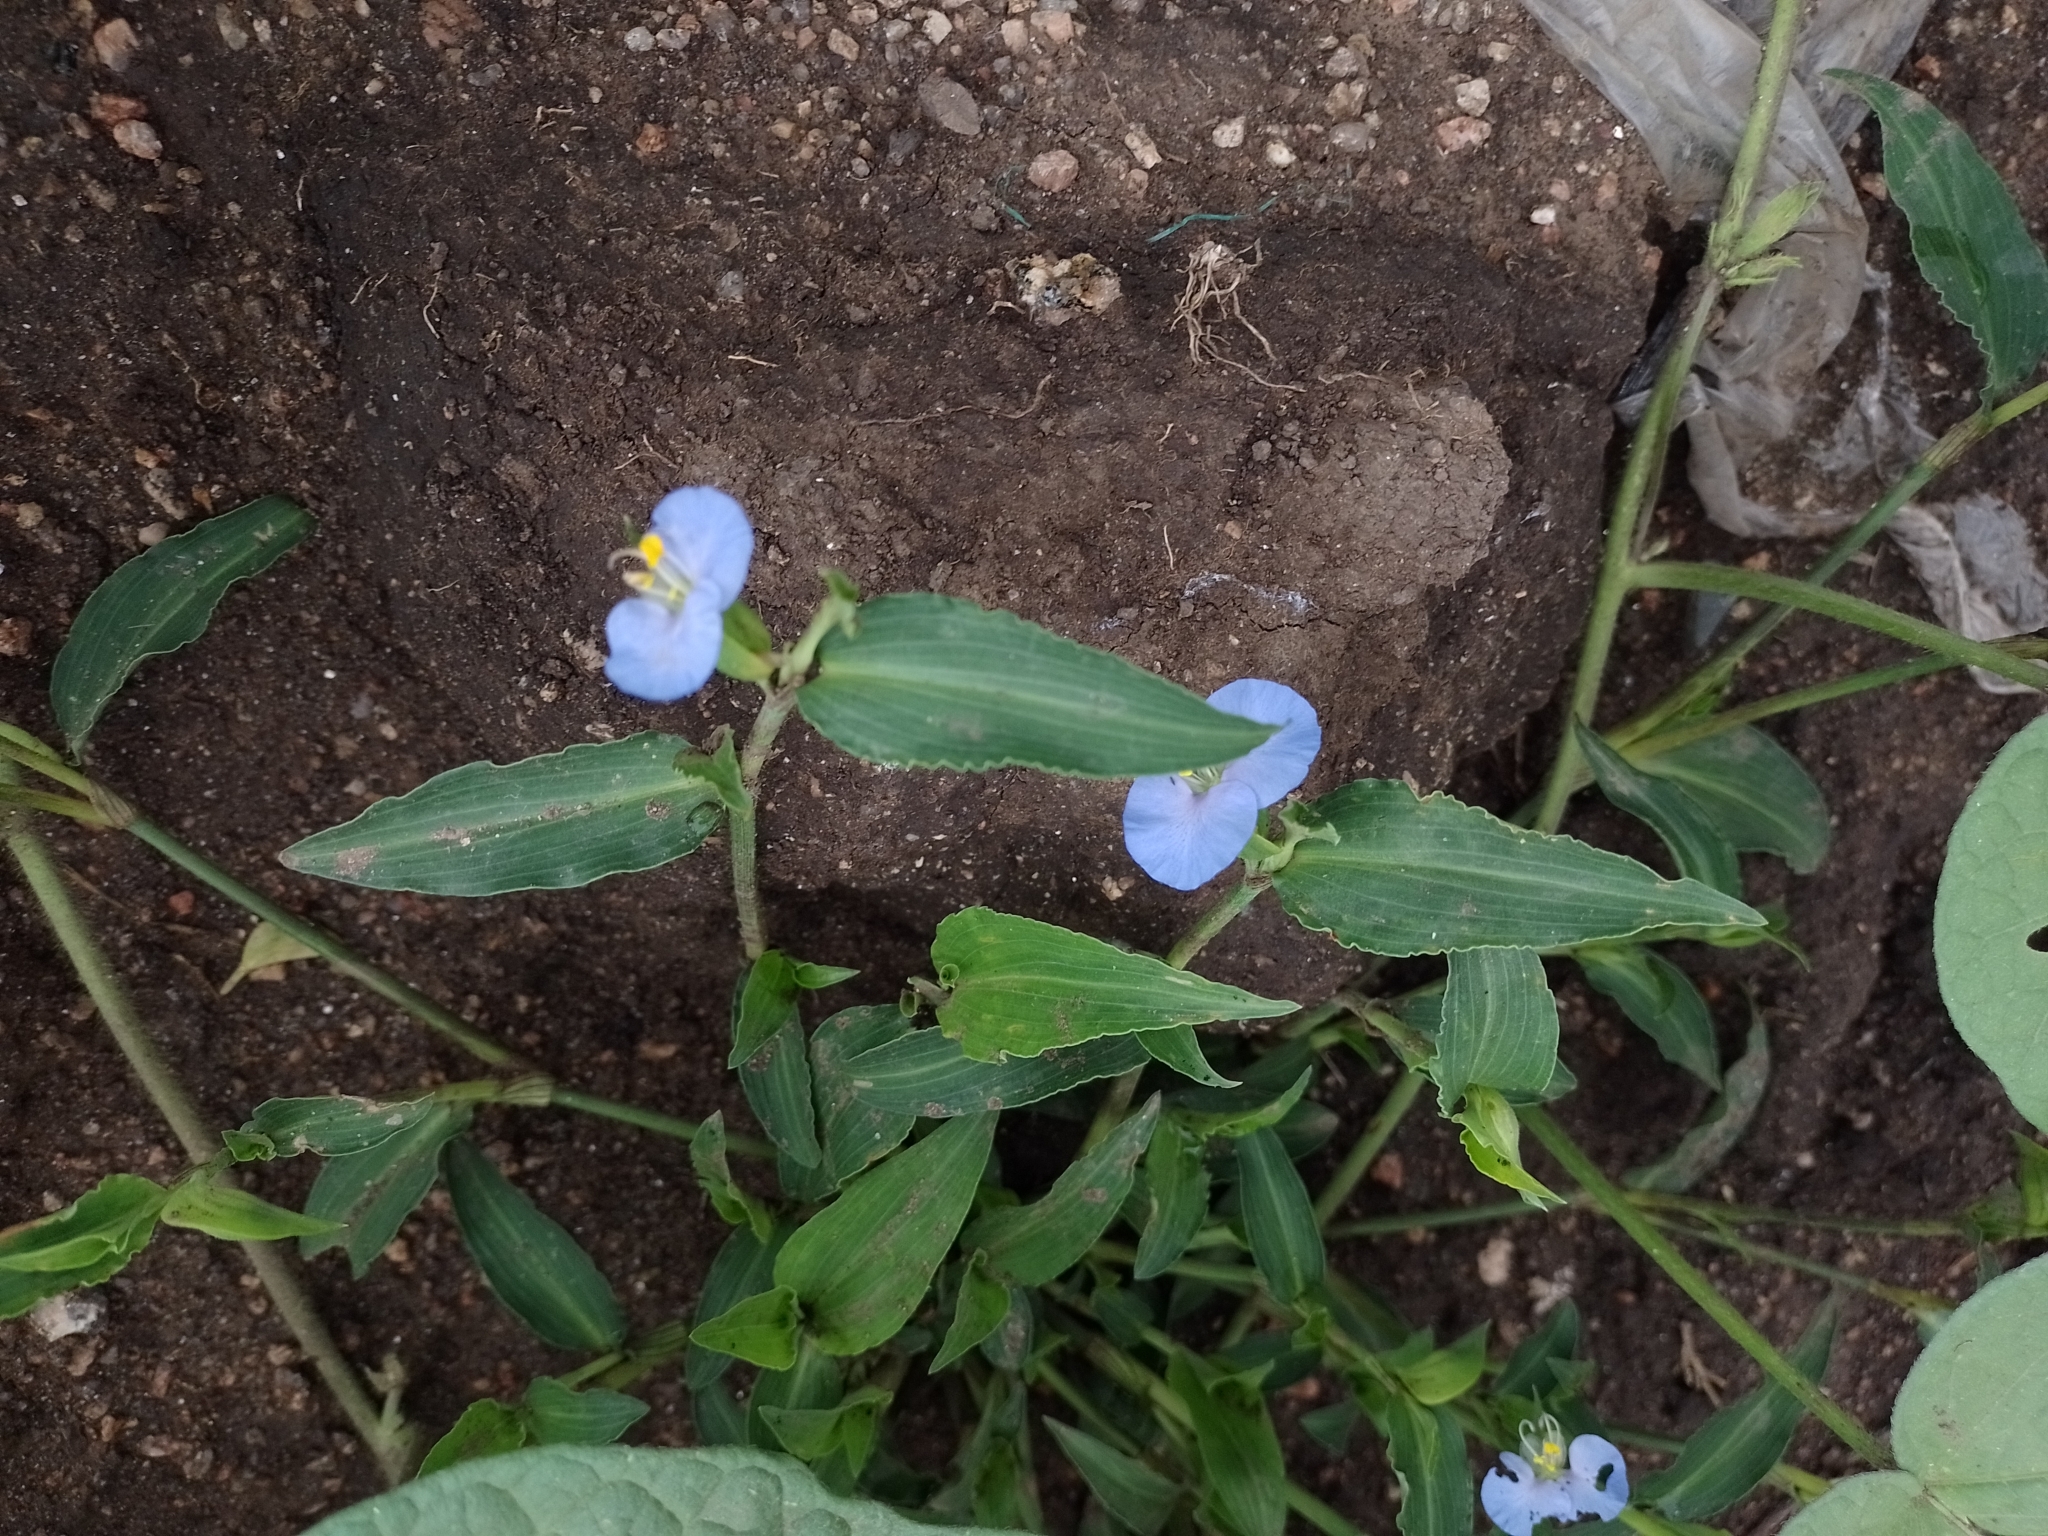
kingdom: Plantae
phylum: Tracheophyta
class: Liliopsida
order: Commelinales
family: Commelinaceae
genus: Commelina
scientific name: Commelina erecta
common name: Blousel blommetjie
